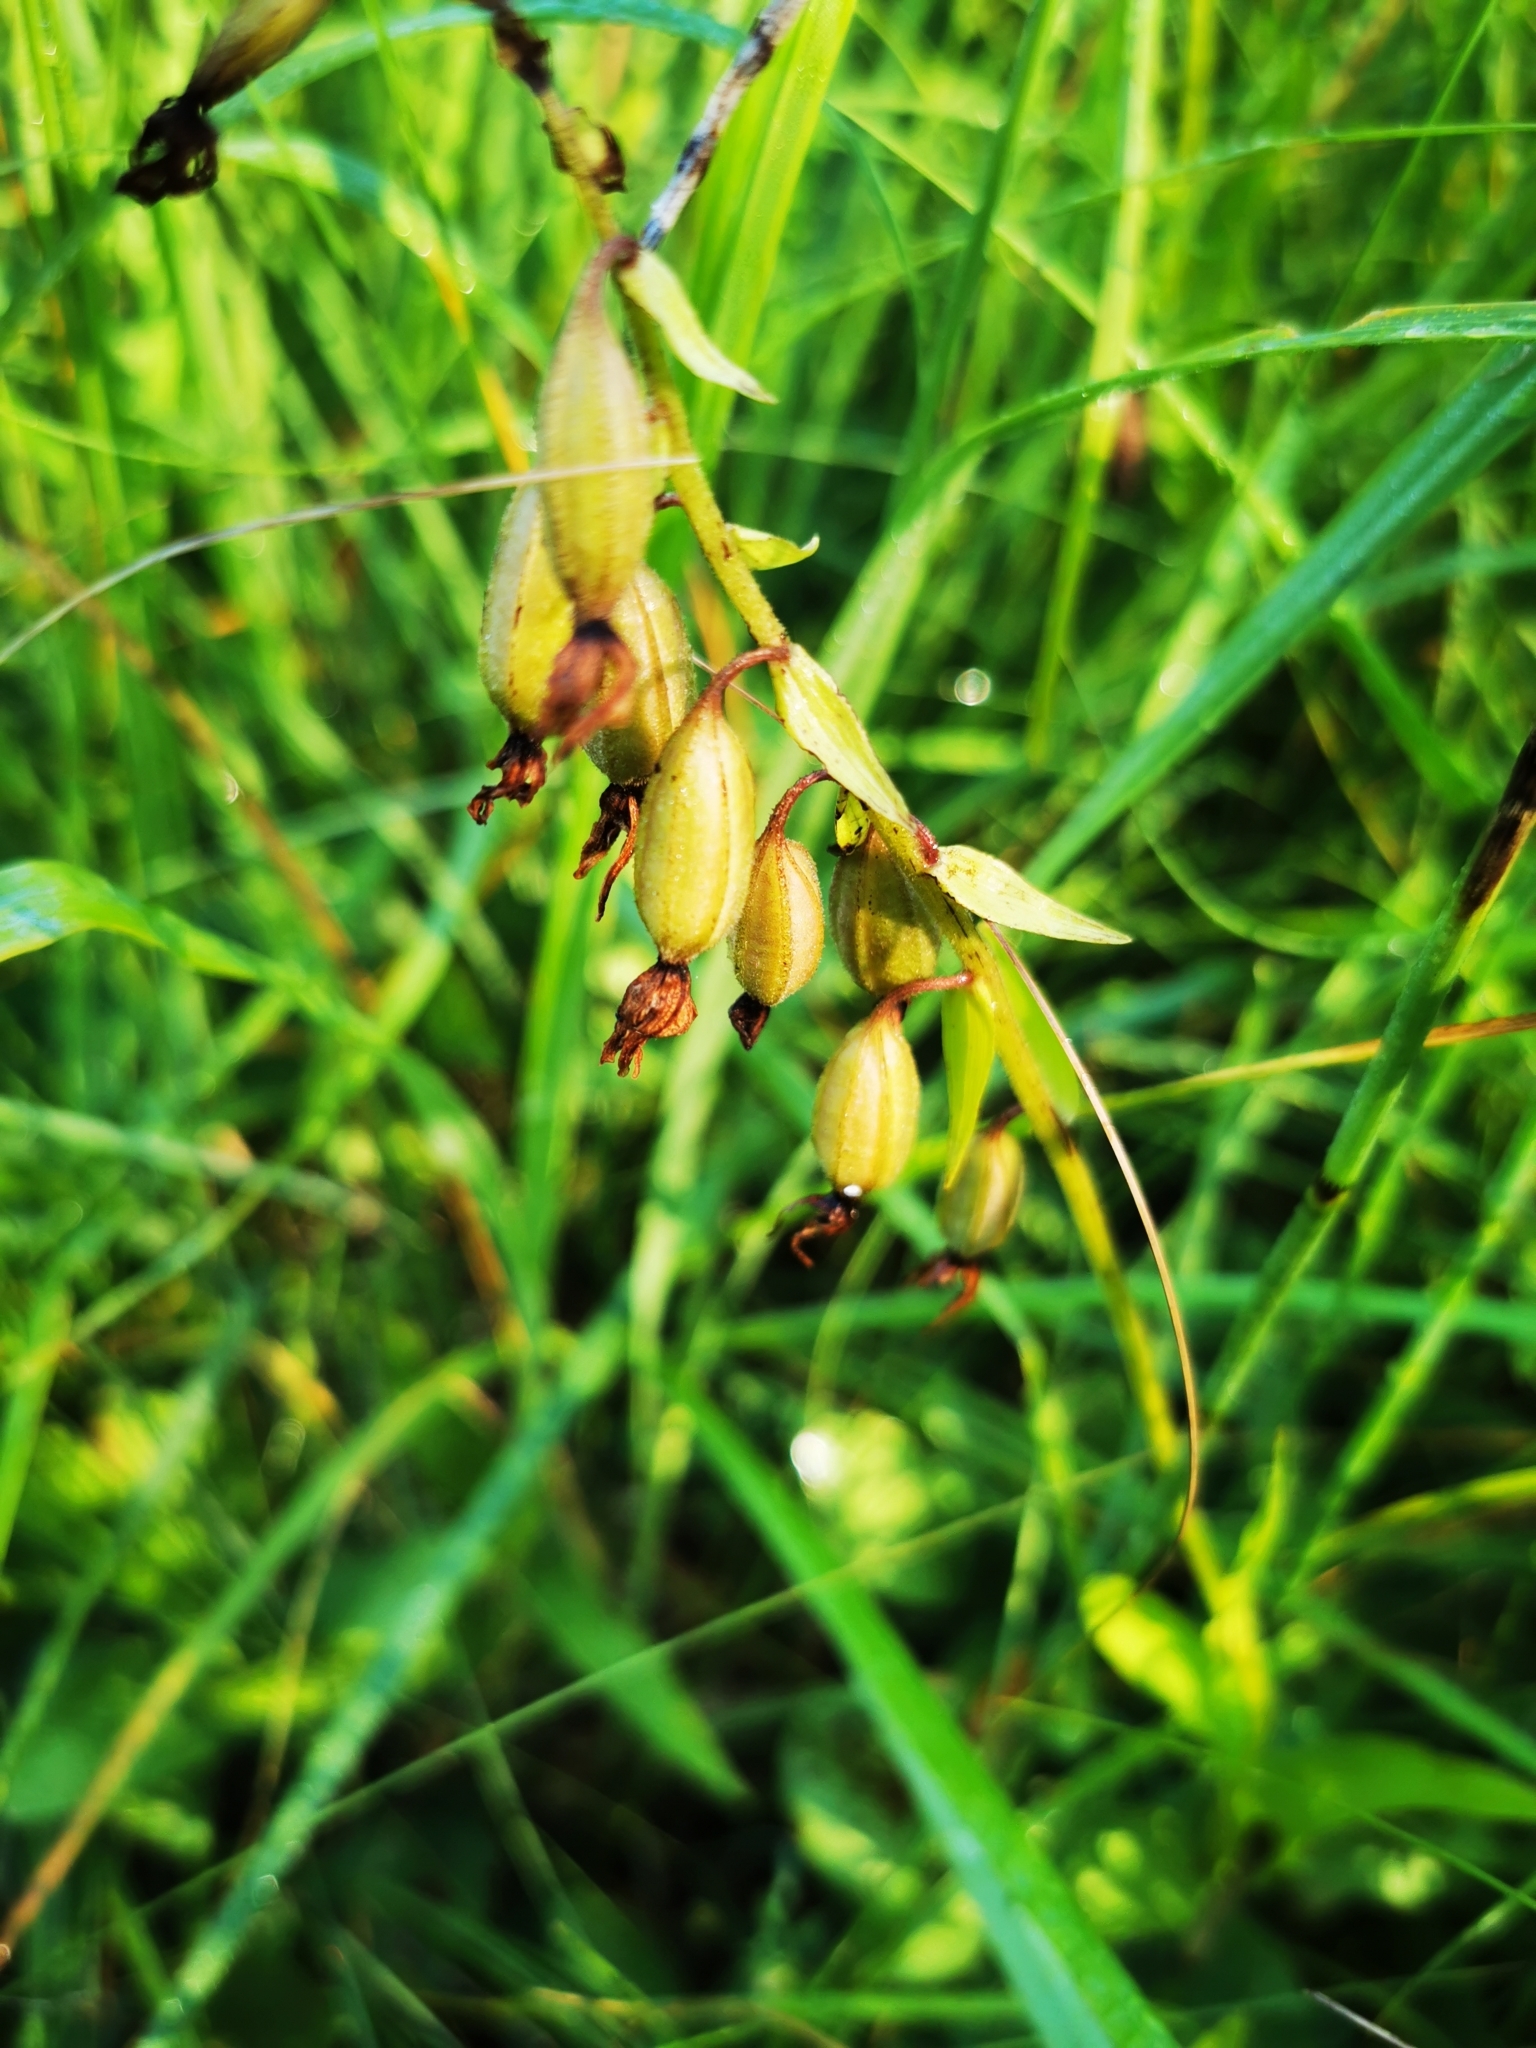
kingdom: Plantae
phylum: Tracheophyta
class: Liliopsida
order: Asparagales
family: Orchidaceae
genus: Epipactis
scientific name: Epipactis palustris
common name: Marsh helleborine
